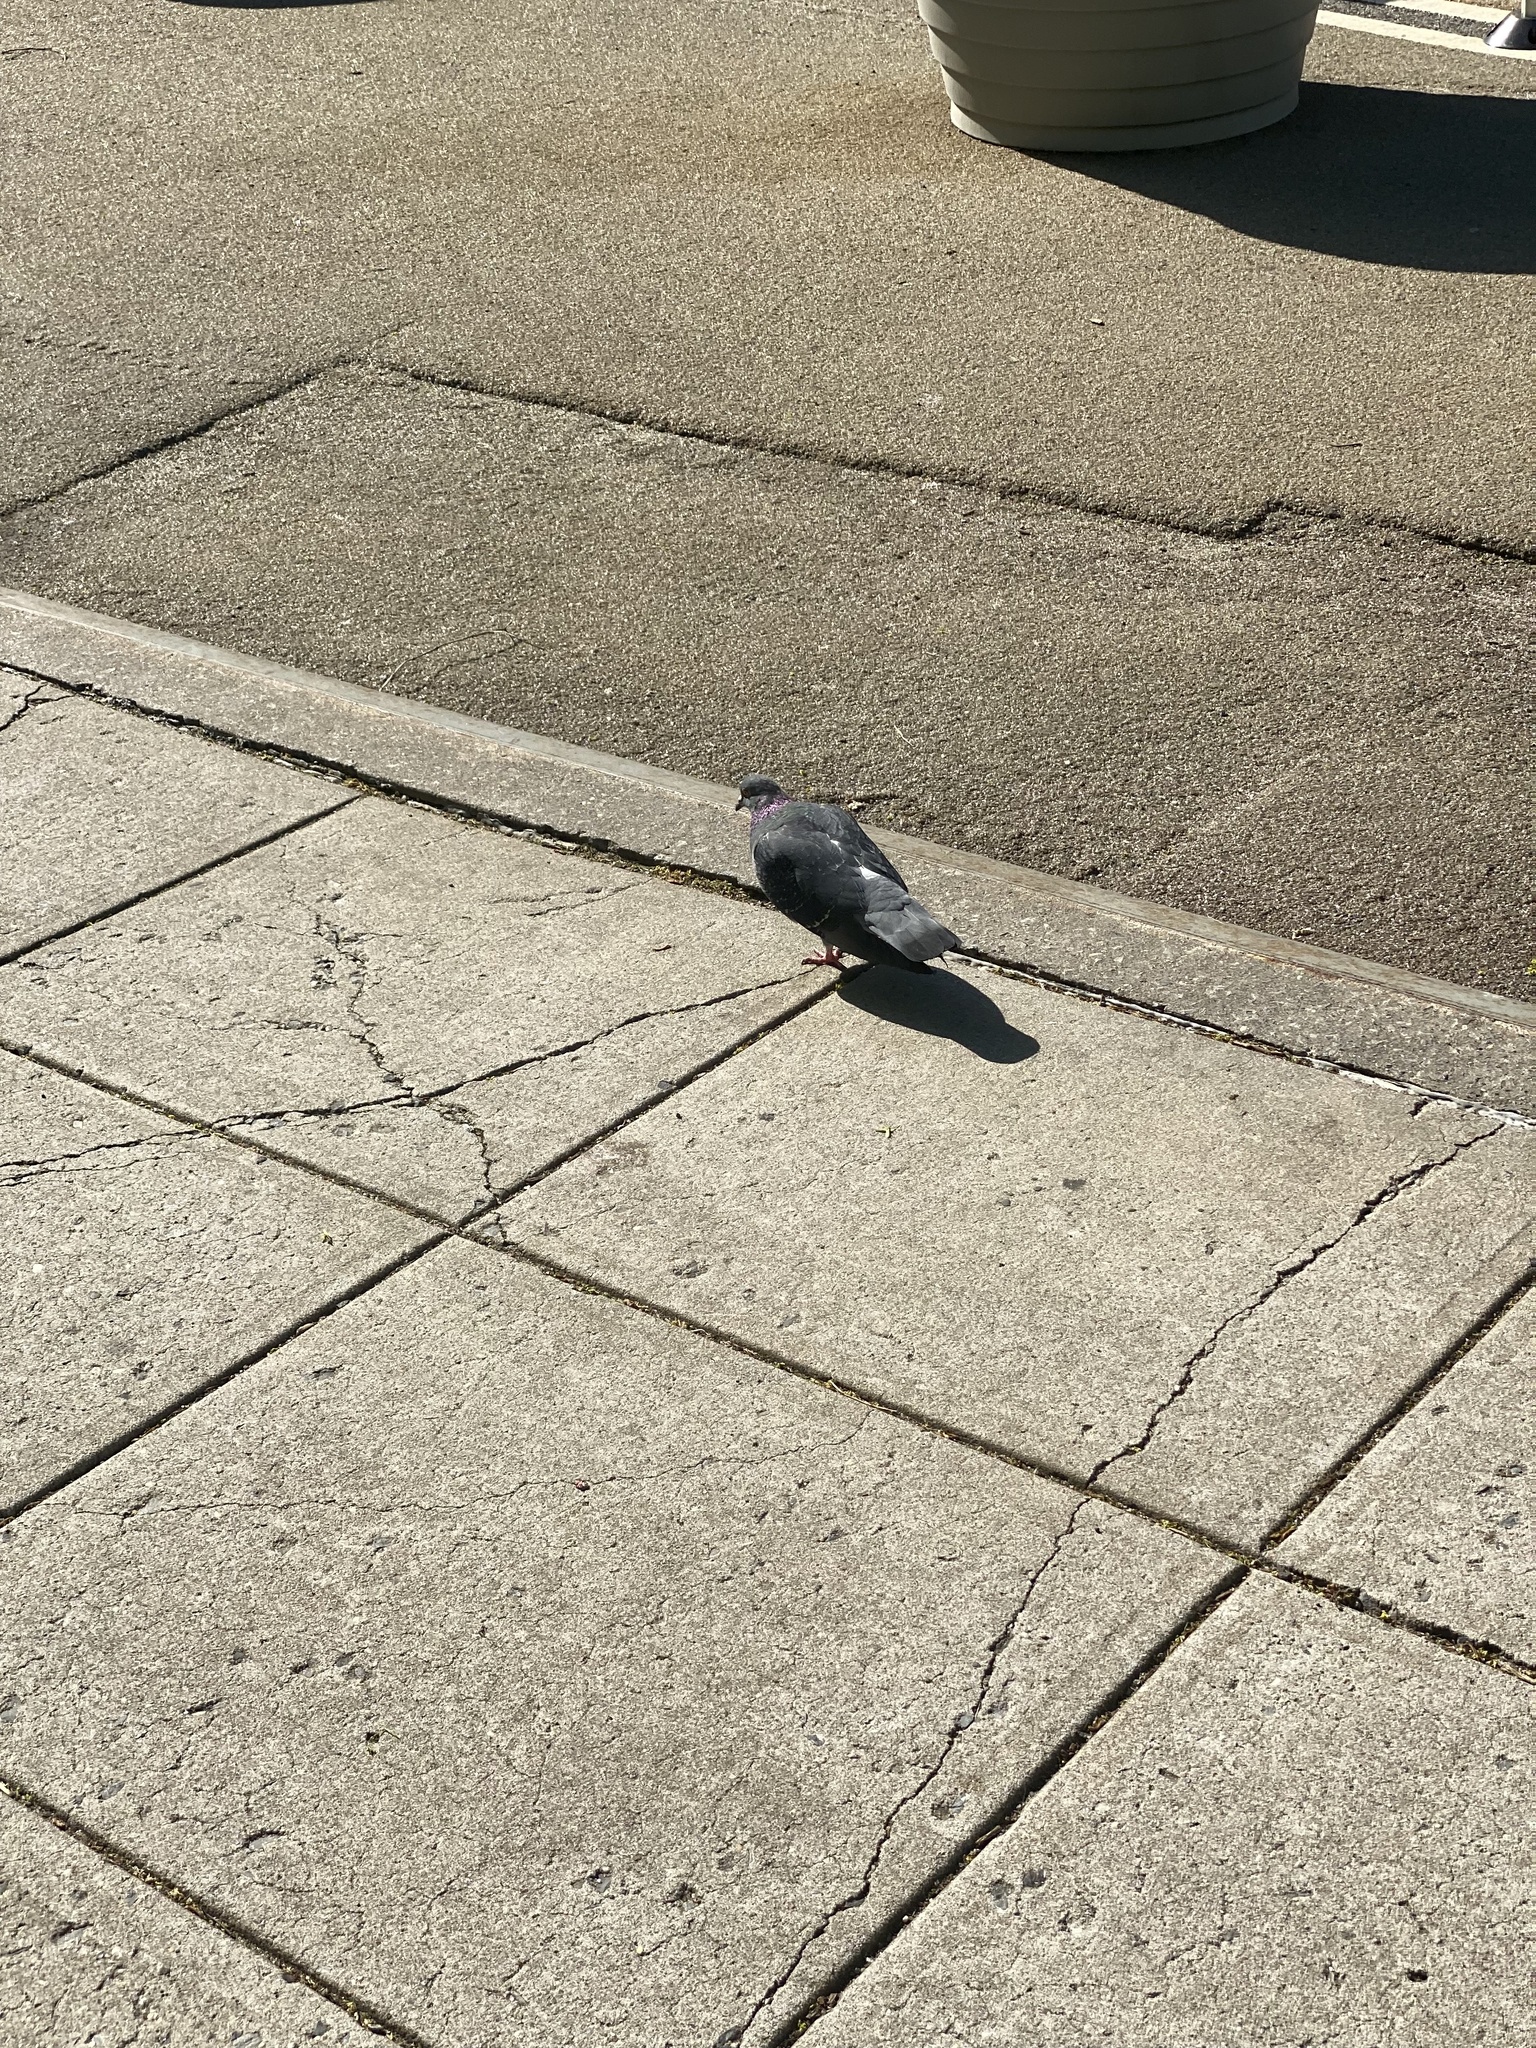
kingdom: Animalia
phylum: Chordata
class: Aves
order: Columbiformes
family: Columbidae
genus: Columba
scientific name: Columba livia
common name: Rock pigeon
